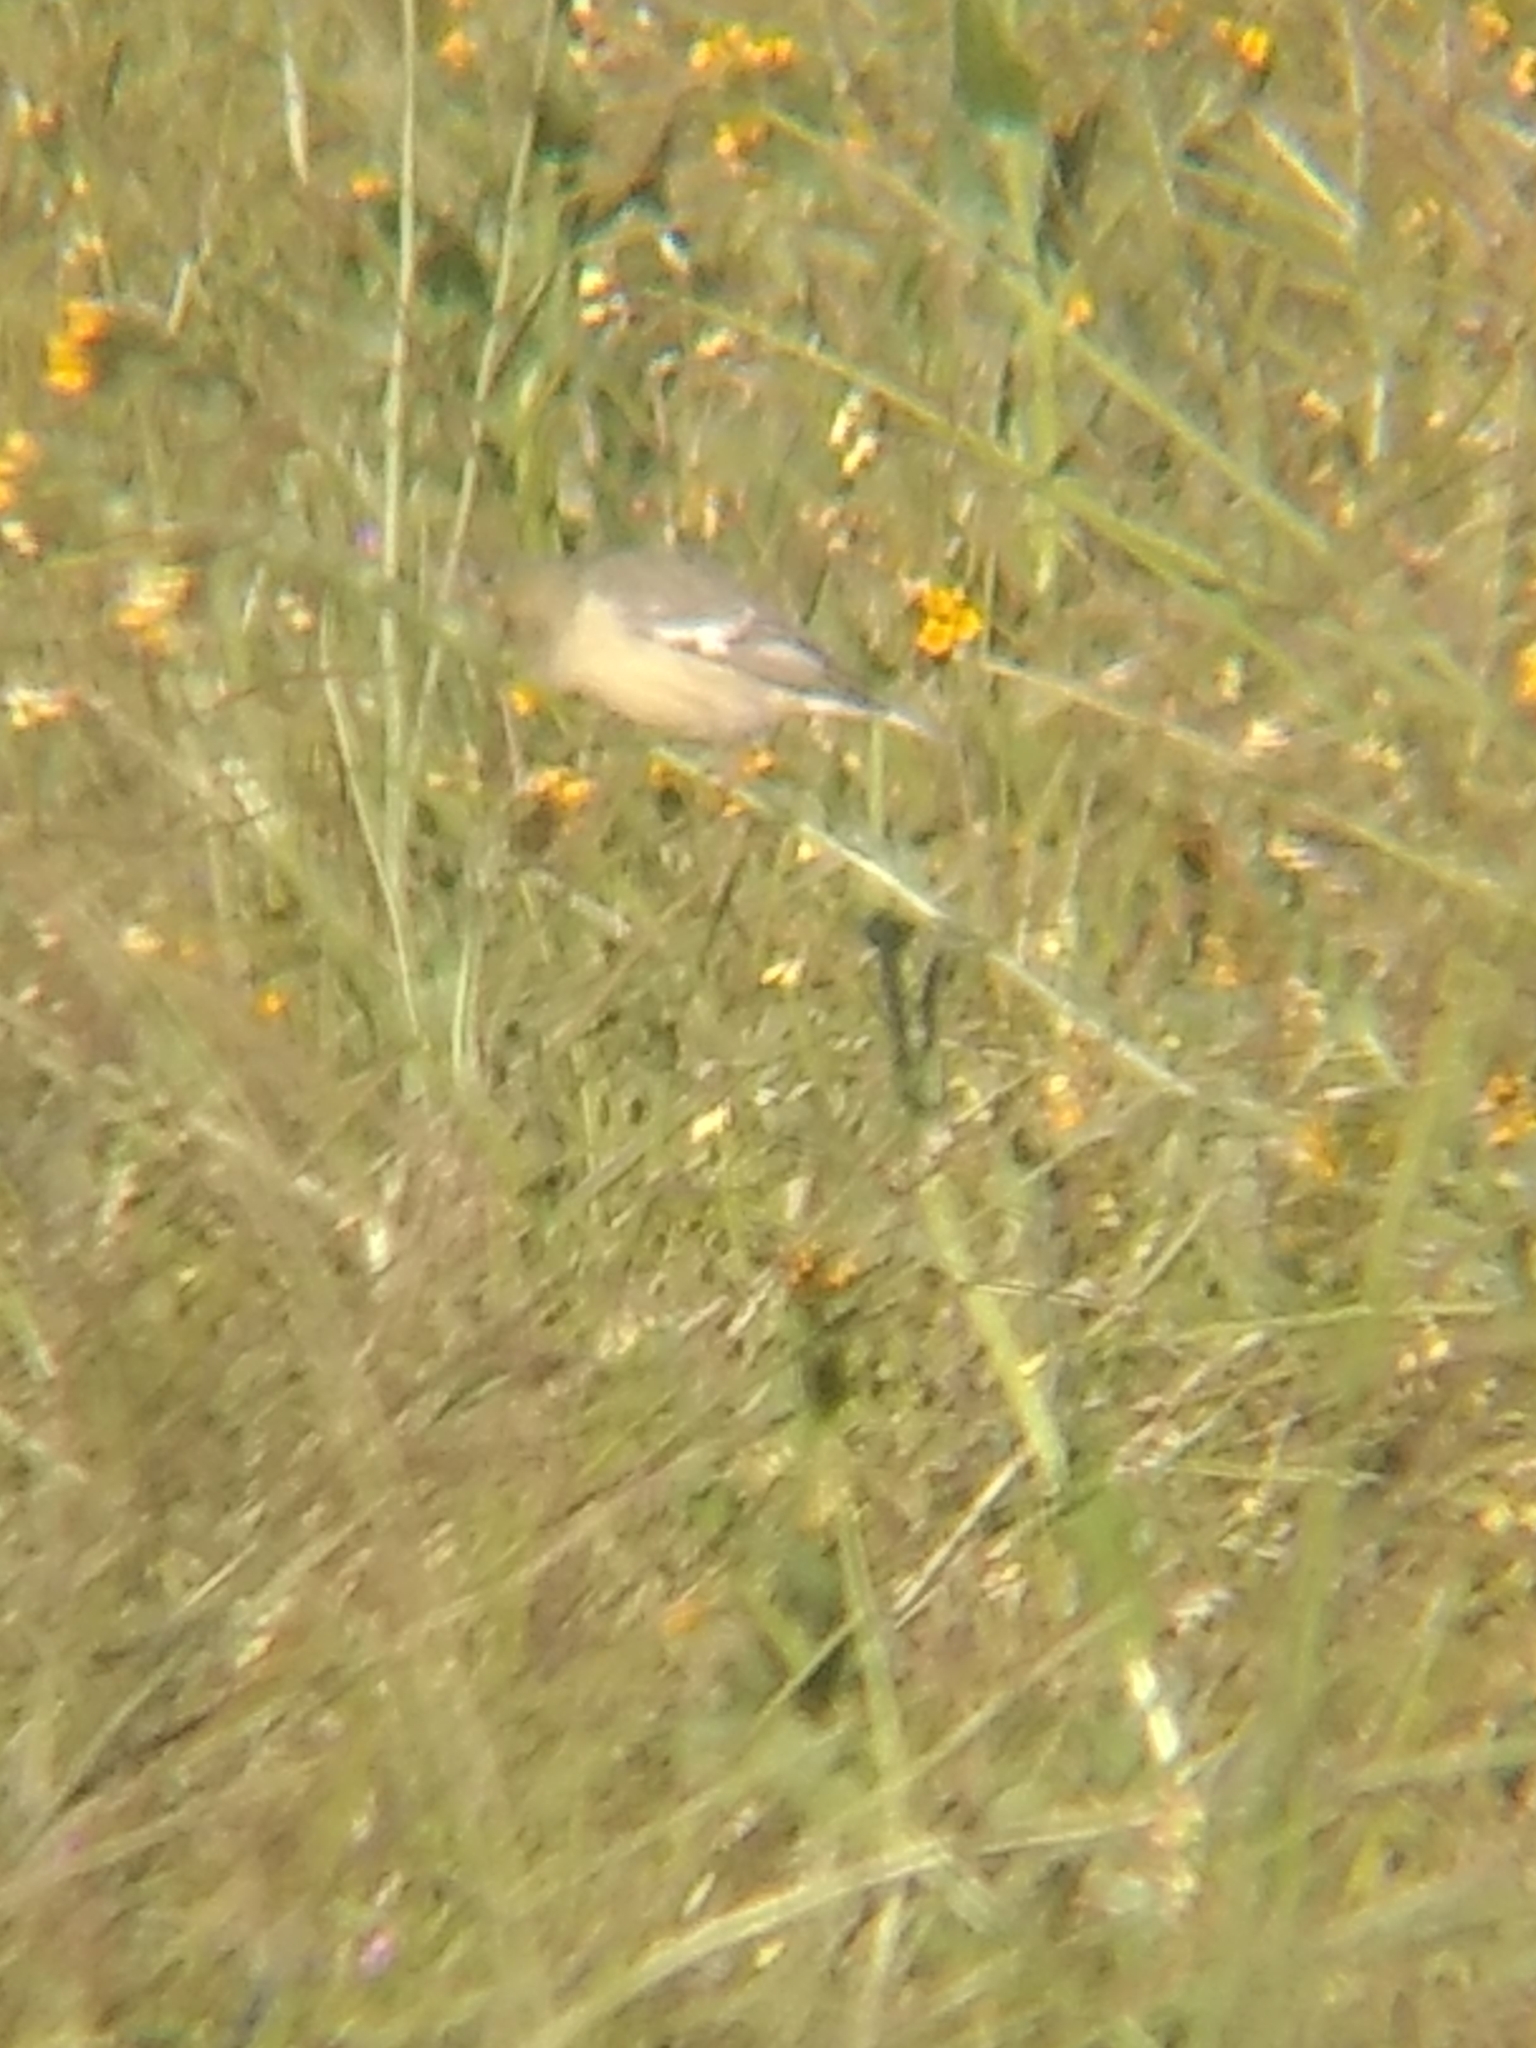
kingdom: Animalia
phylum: Chordata
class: Aves
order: Passeriformes
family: Fringillidae
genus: Spinus
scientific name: Spinus psaltria
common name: Lesser goldfinch
